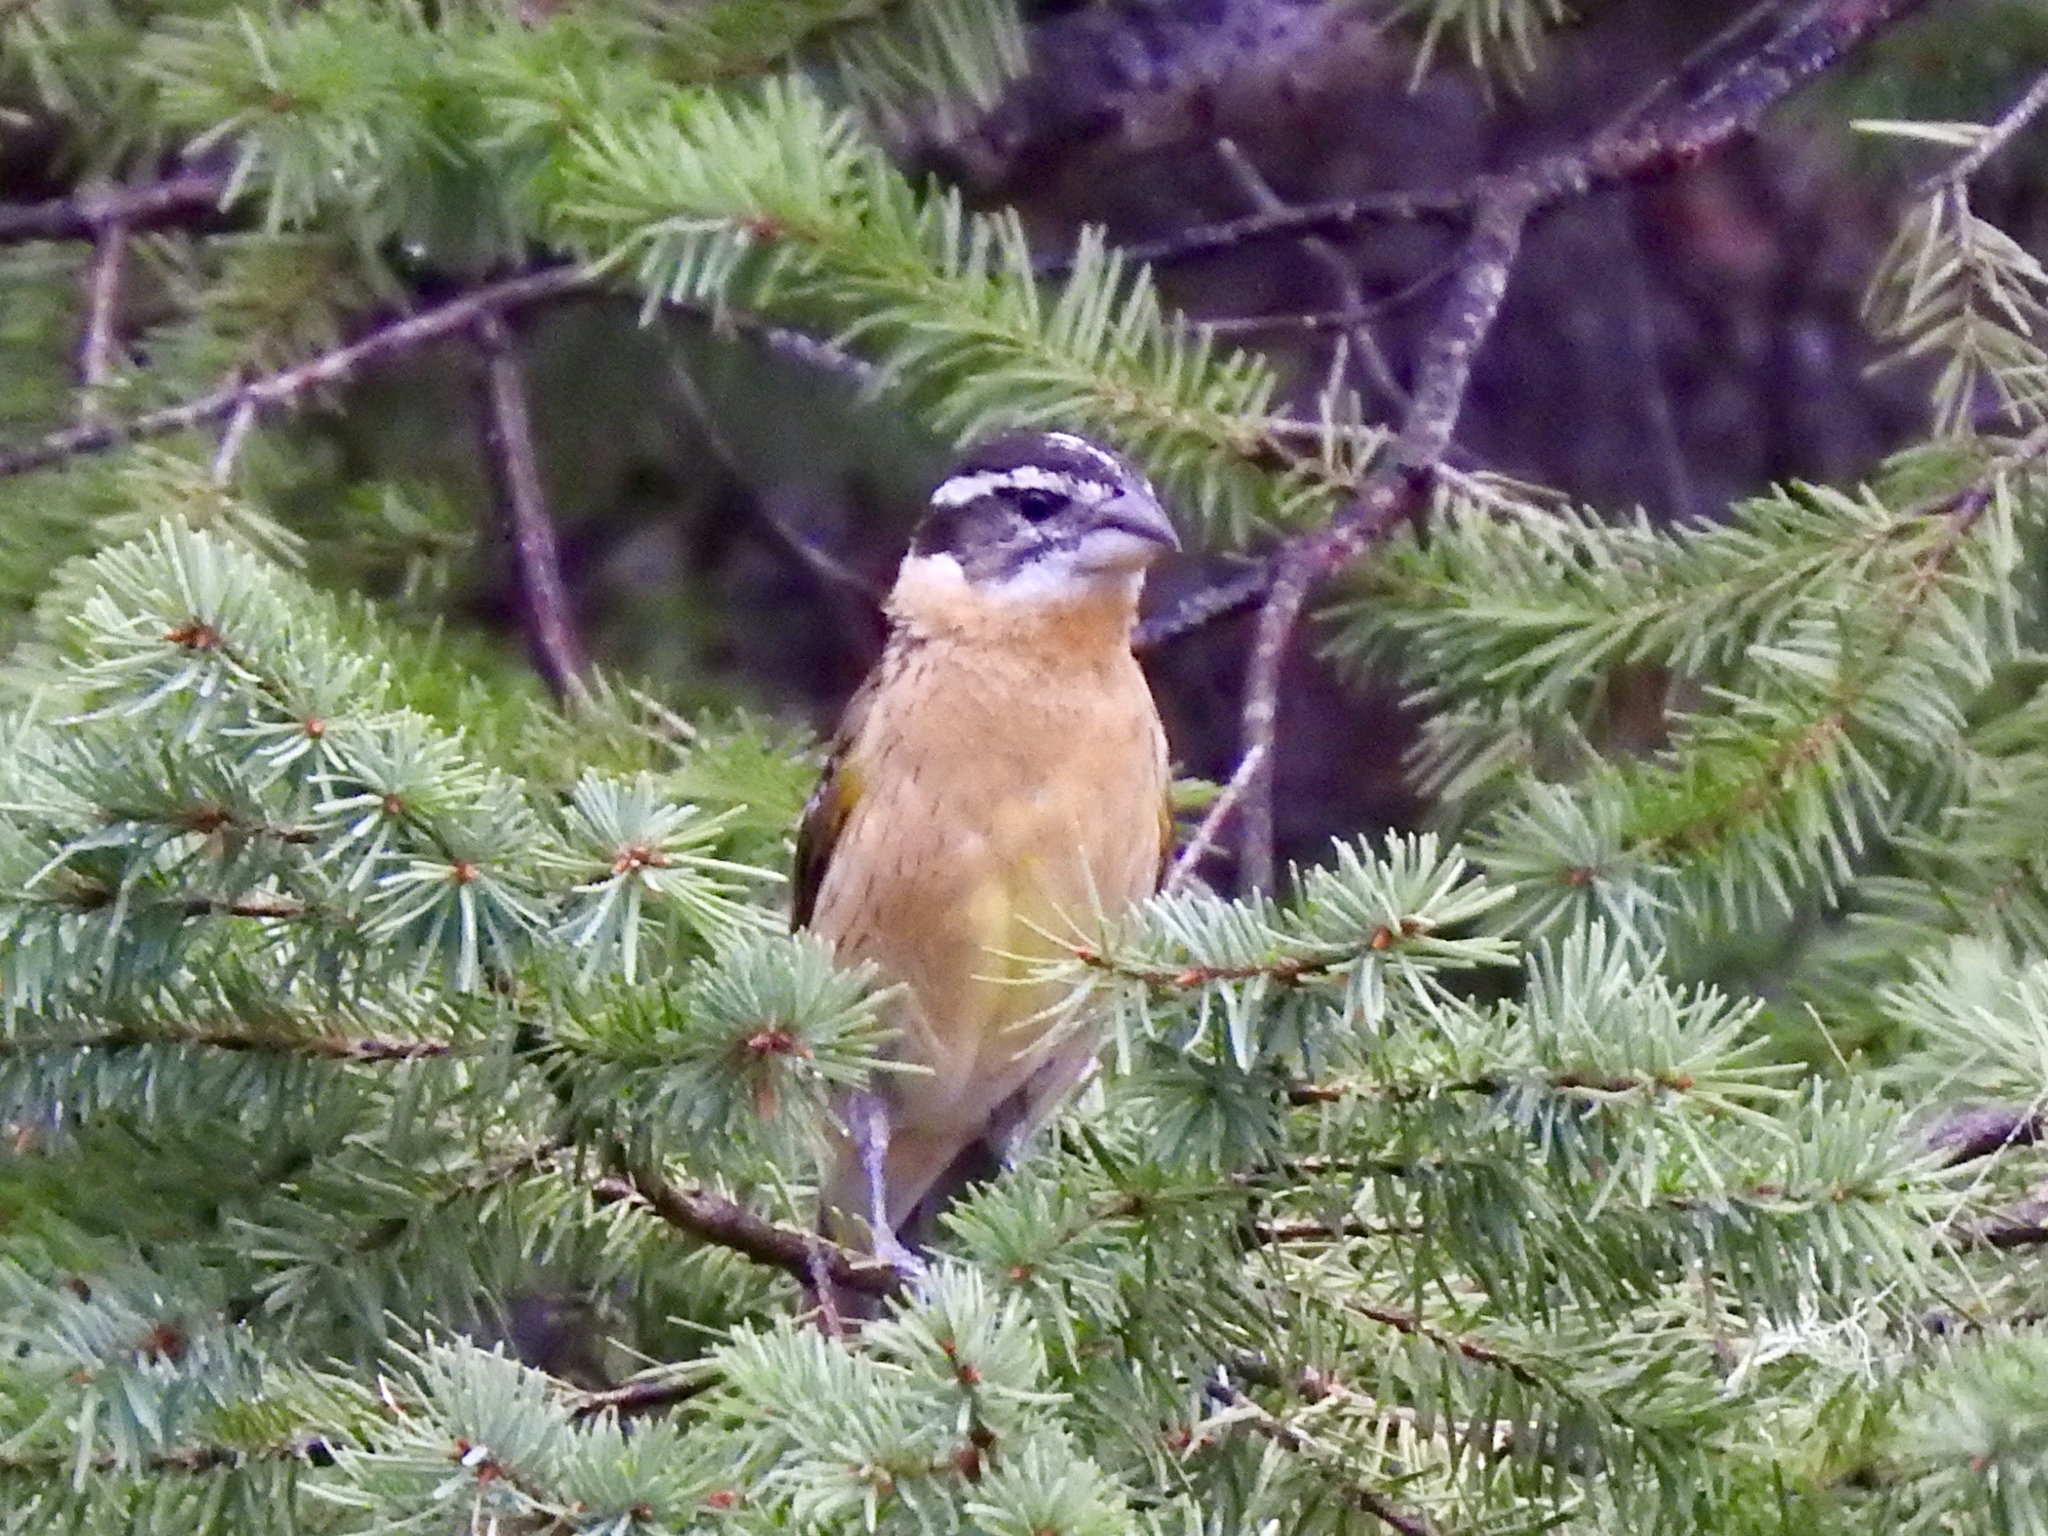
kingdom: Animalia
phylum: Chordata
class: Aves
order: Passeriformes
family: Cardinalidae
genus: Pheucticus
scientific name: Pheucticus melanocephalus
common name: Black-headed grosbeak
